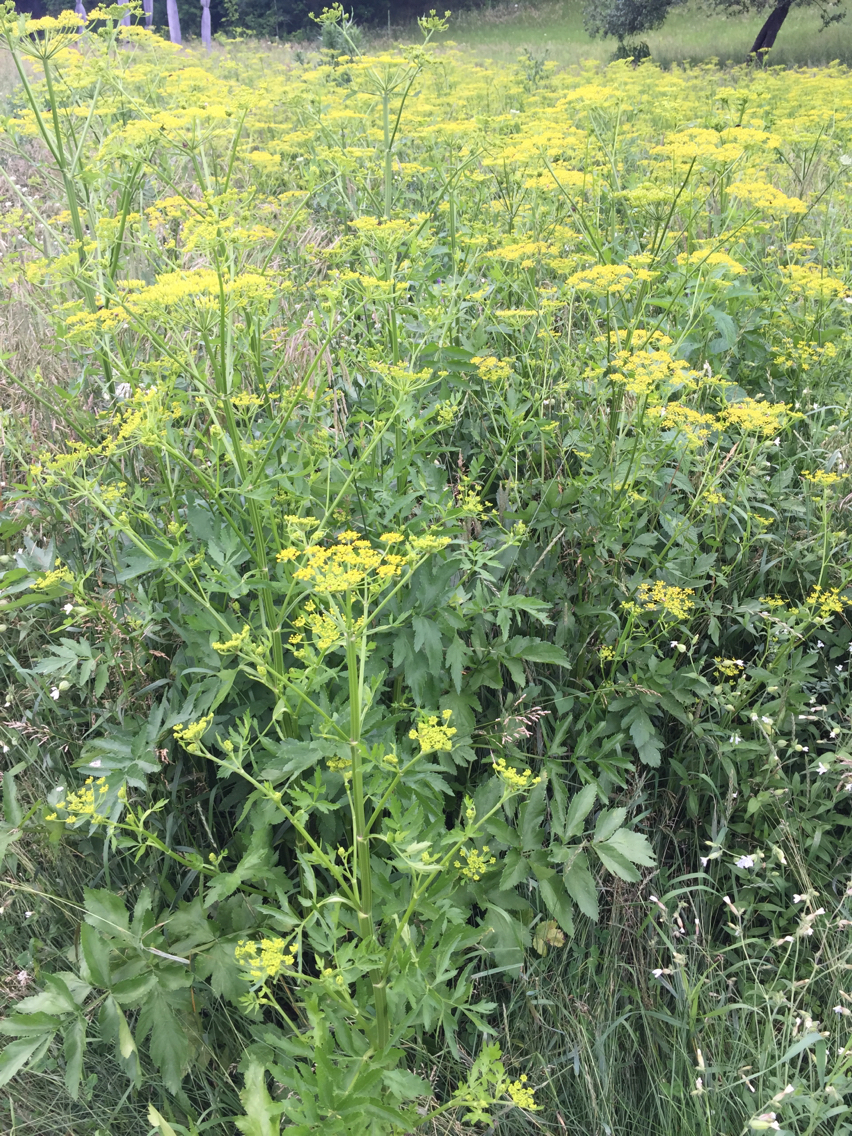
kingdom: Plantae
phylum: Tracheophyta
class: Magnoliopsida
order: Apiales
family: Apiaceae
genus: Pastinaca
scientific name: Pastinaca sativa
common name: Wild parsnip
